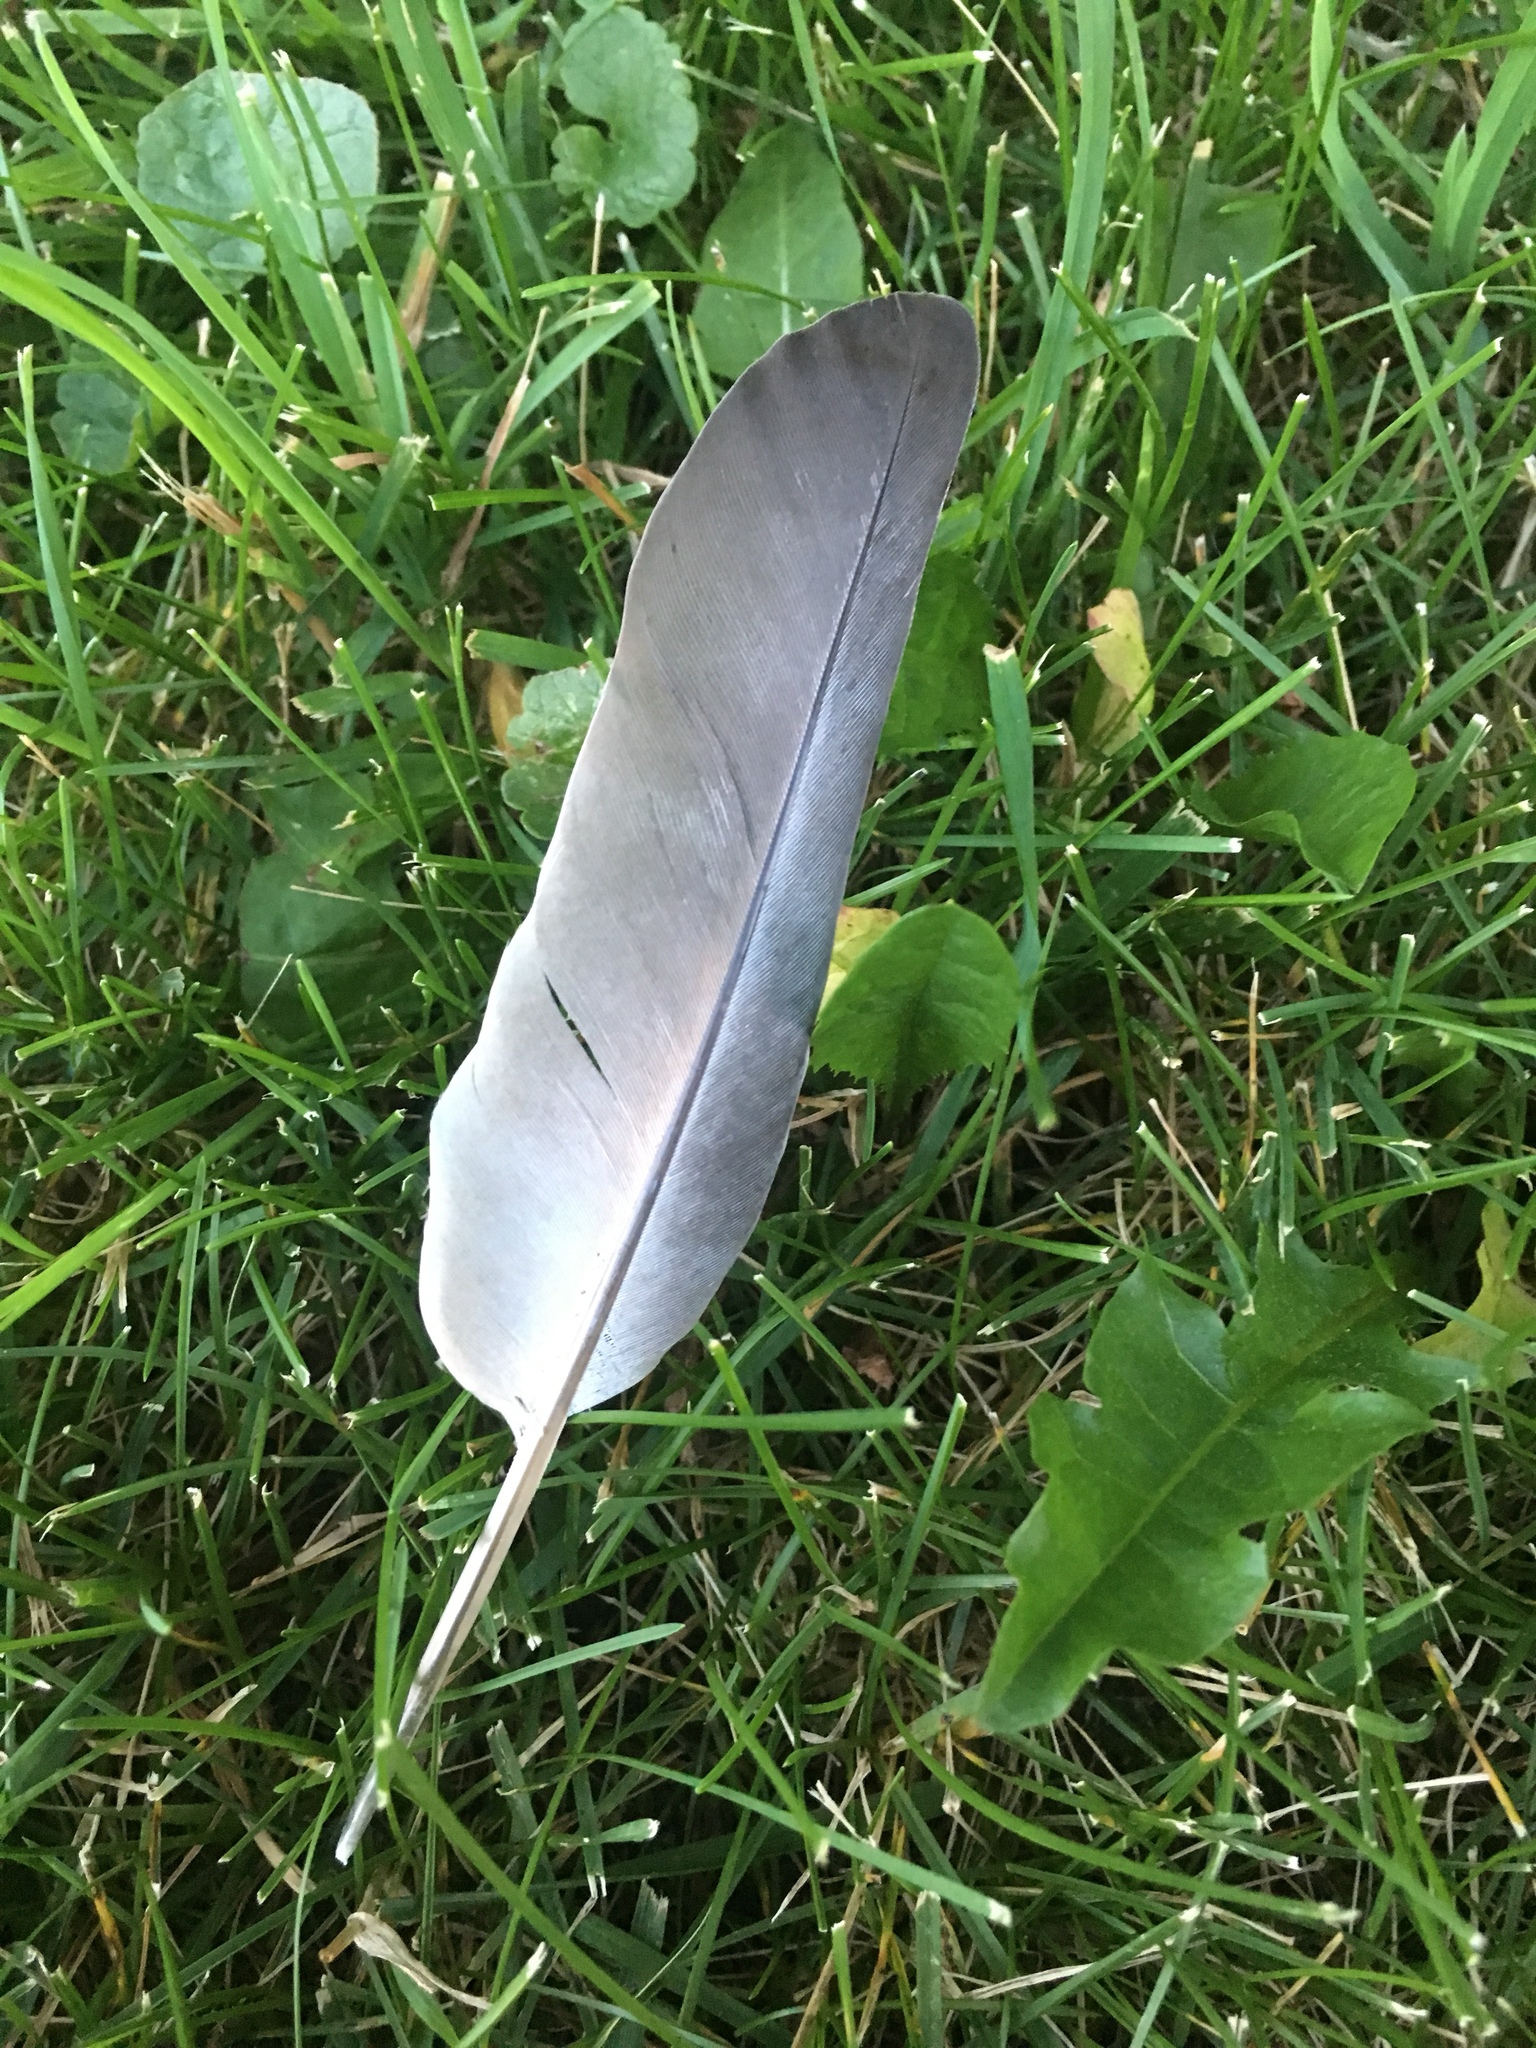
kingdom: Animalia
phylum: Chordata
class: Aves
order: Columbiformes
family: Columbidae
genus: Columba
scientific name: Columba livia
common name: Rock pigeon
